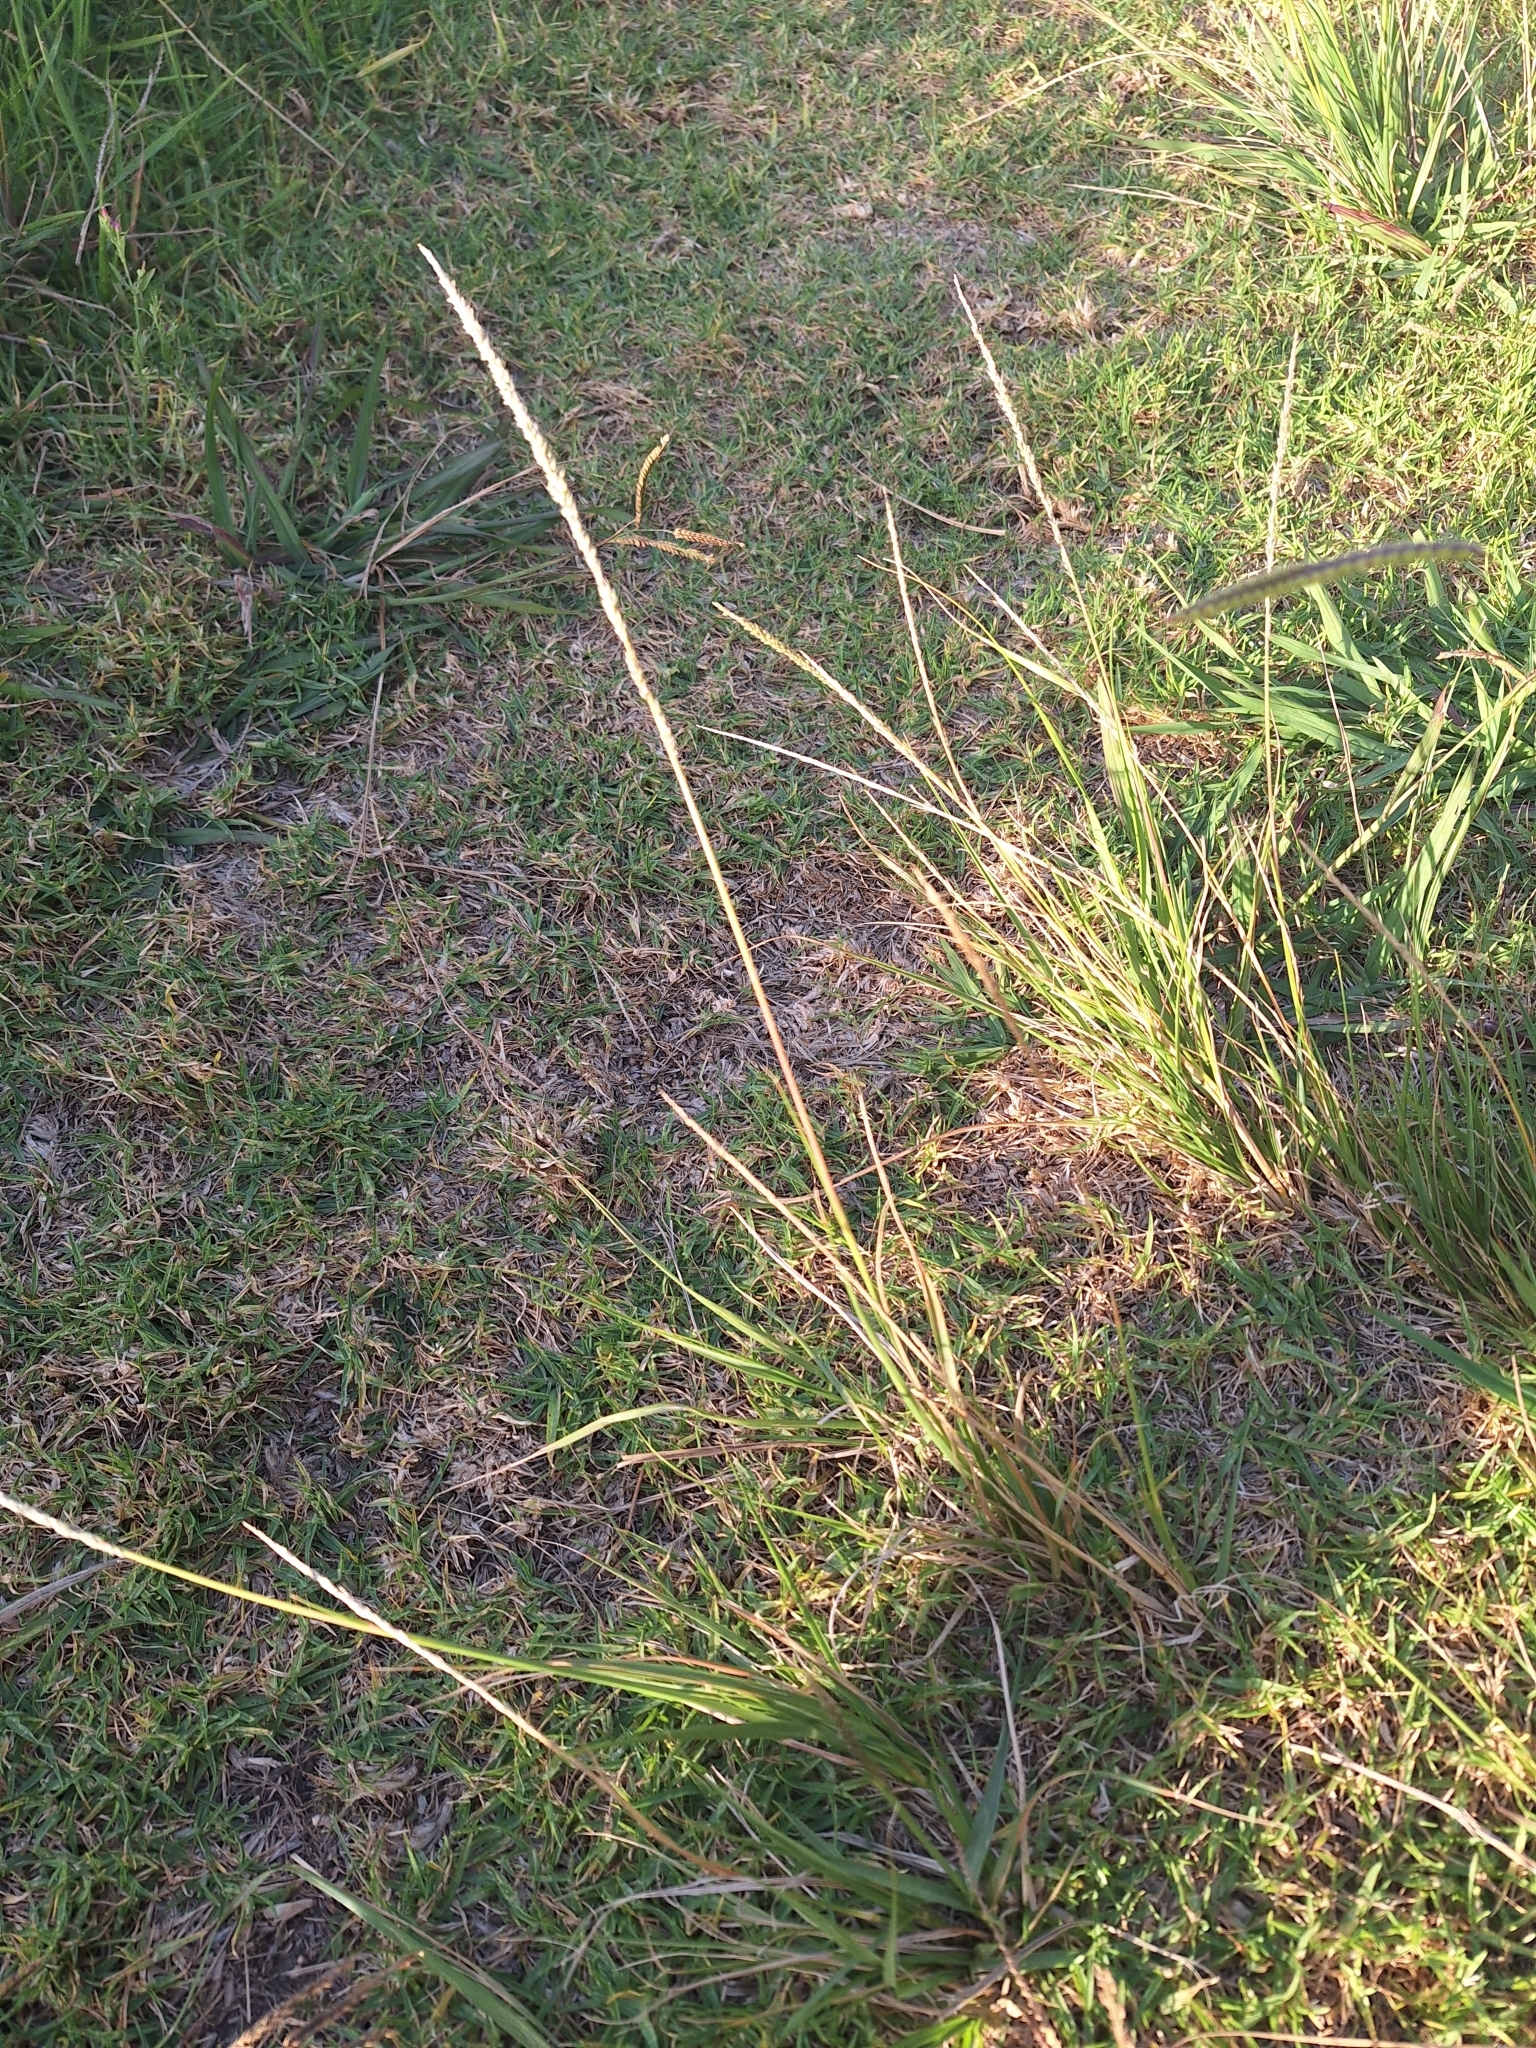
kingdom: Plantae
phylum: Tracheophyta
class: Liliopsida
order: Poales
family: Poaceae
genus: Sporobolus
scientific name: Sporobolus africanus
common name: African dropseed
